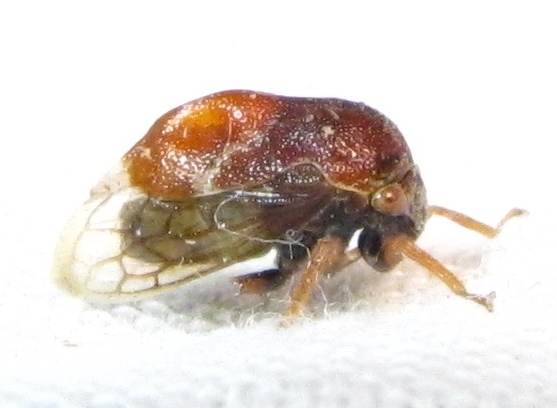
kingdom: Animalia
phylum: Arthropoda
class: Insecta
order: Hemiptera
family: Membracidae
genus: Xantholobus
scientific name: Xantholobus mutica
